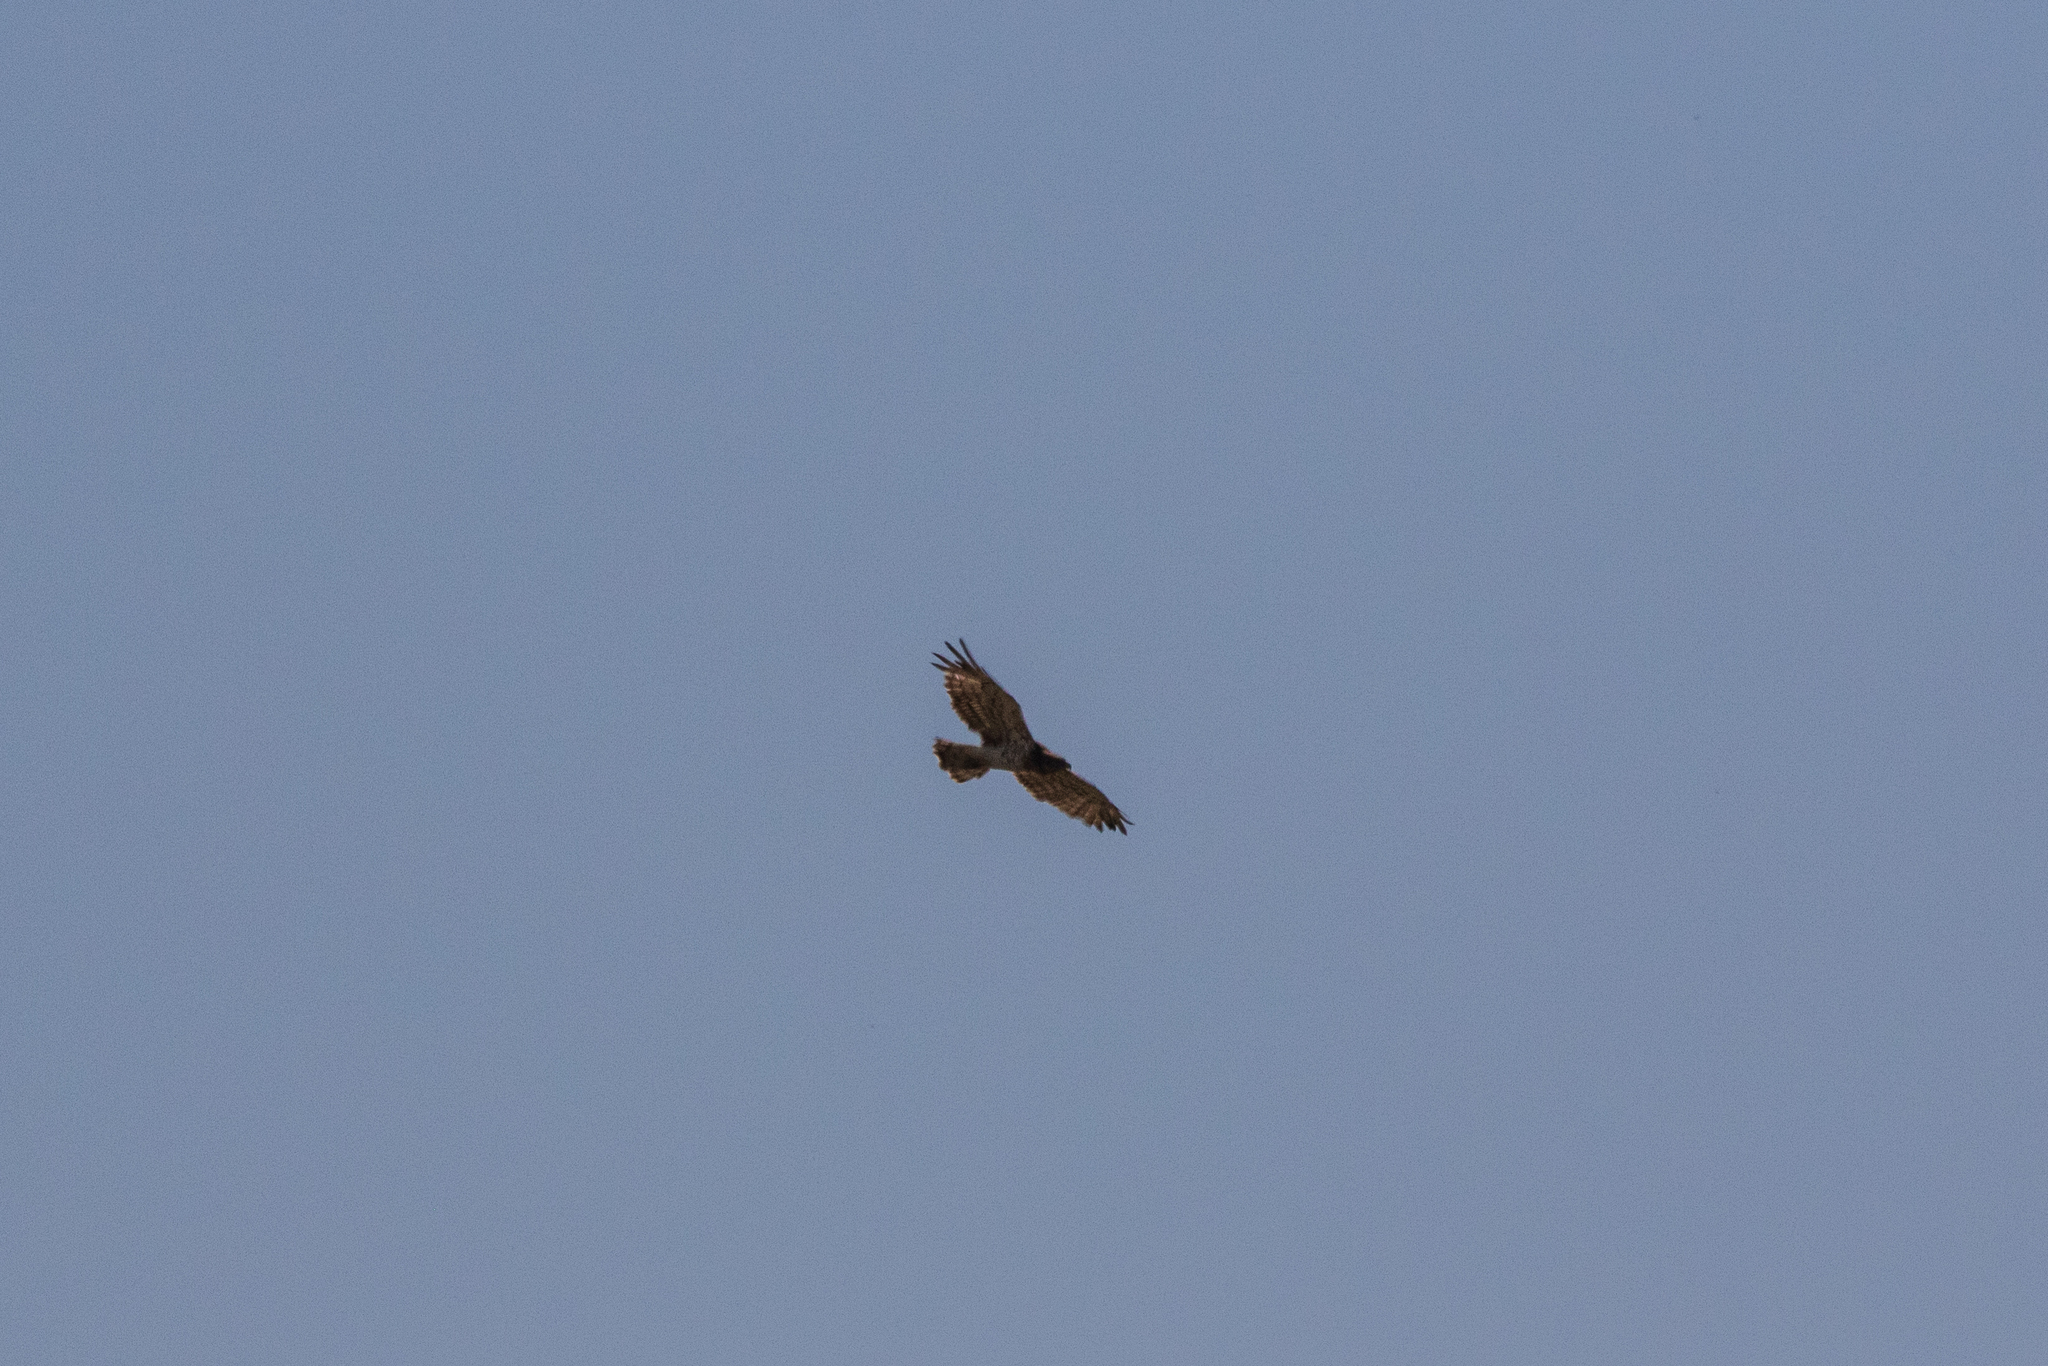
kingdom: Animalia
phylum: Chordata
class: Aves
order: Accipitriformes
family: Accipitridae
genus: Circaetus
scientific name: Circaetus gallicus
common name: Short-toed snake eagle
